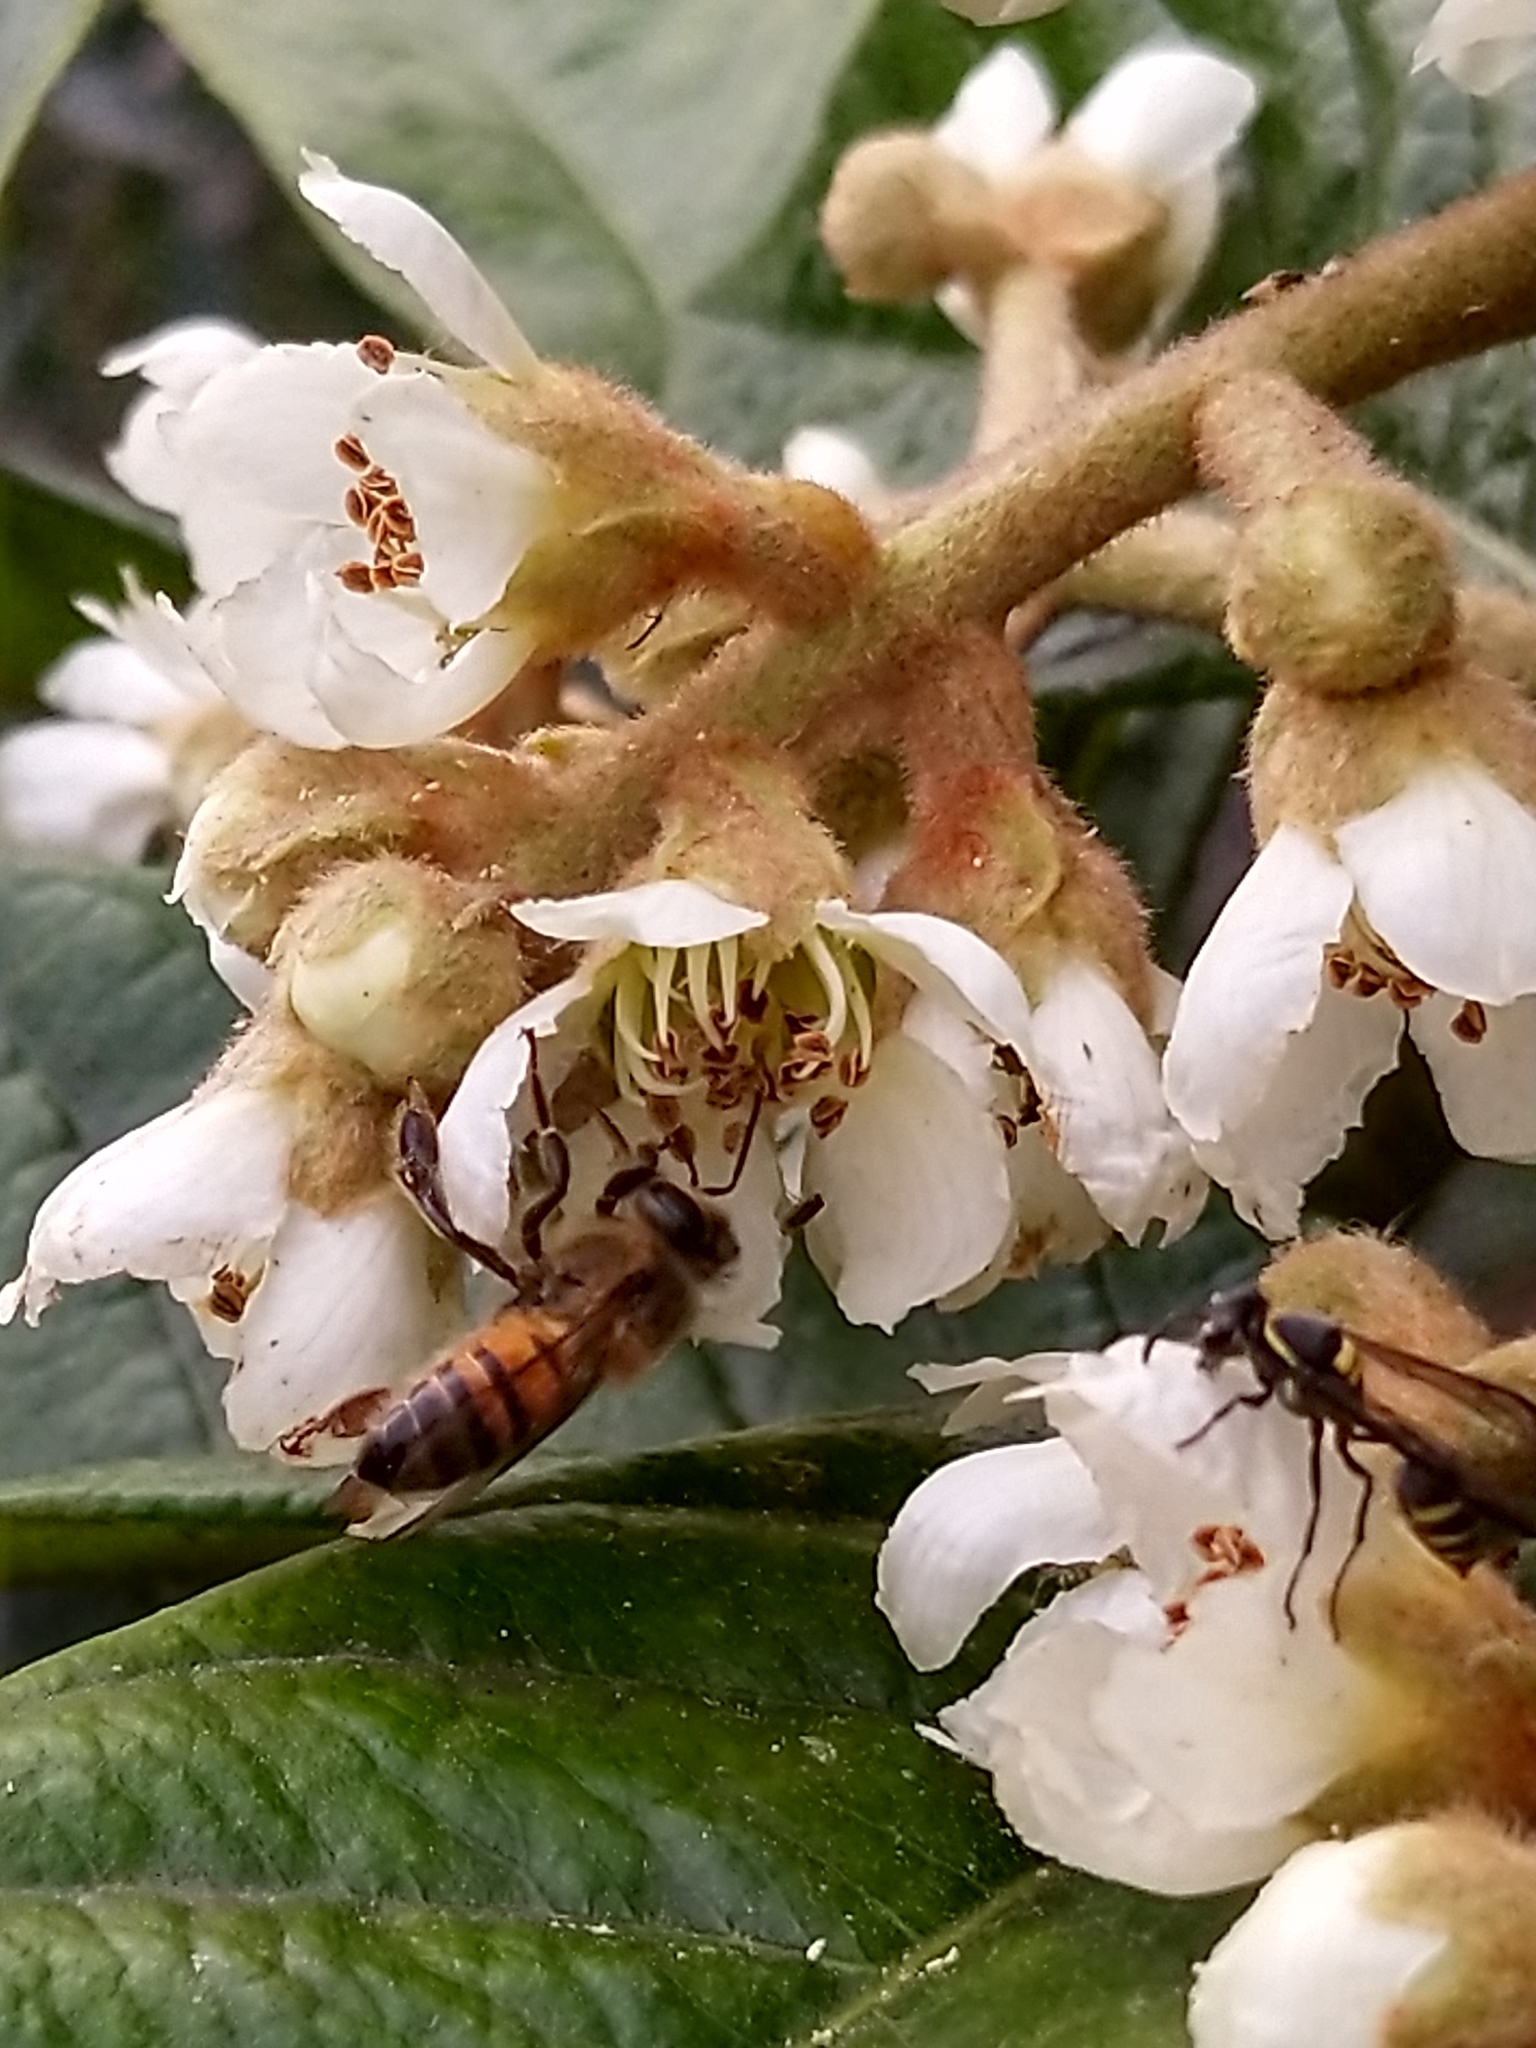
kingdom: Animalia
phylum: Arthropoda
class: Insecta
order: Hymenoptera
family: Apidae
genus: Apis
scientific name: Apis mellifera
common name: Honey bee
